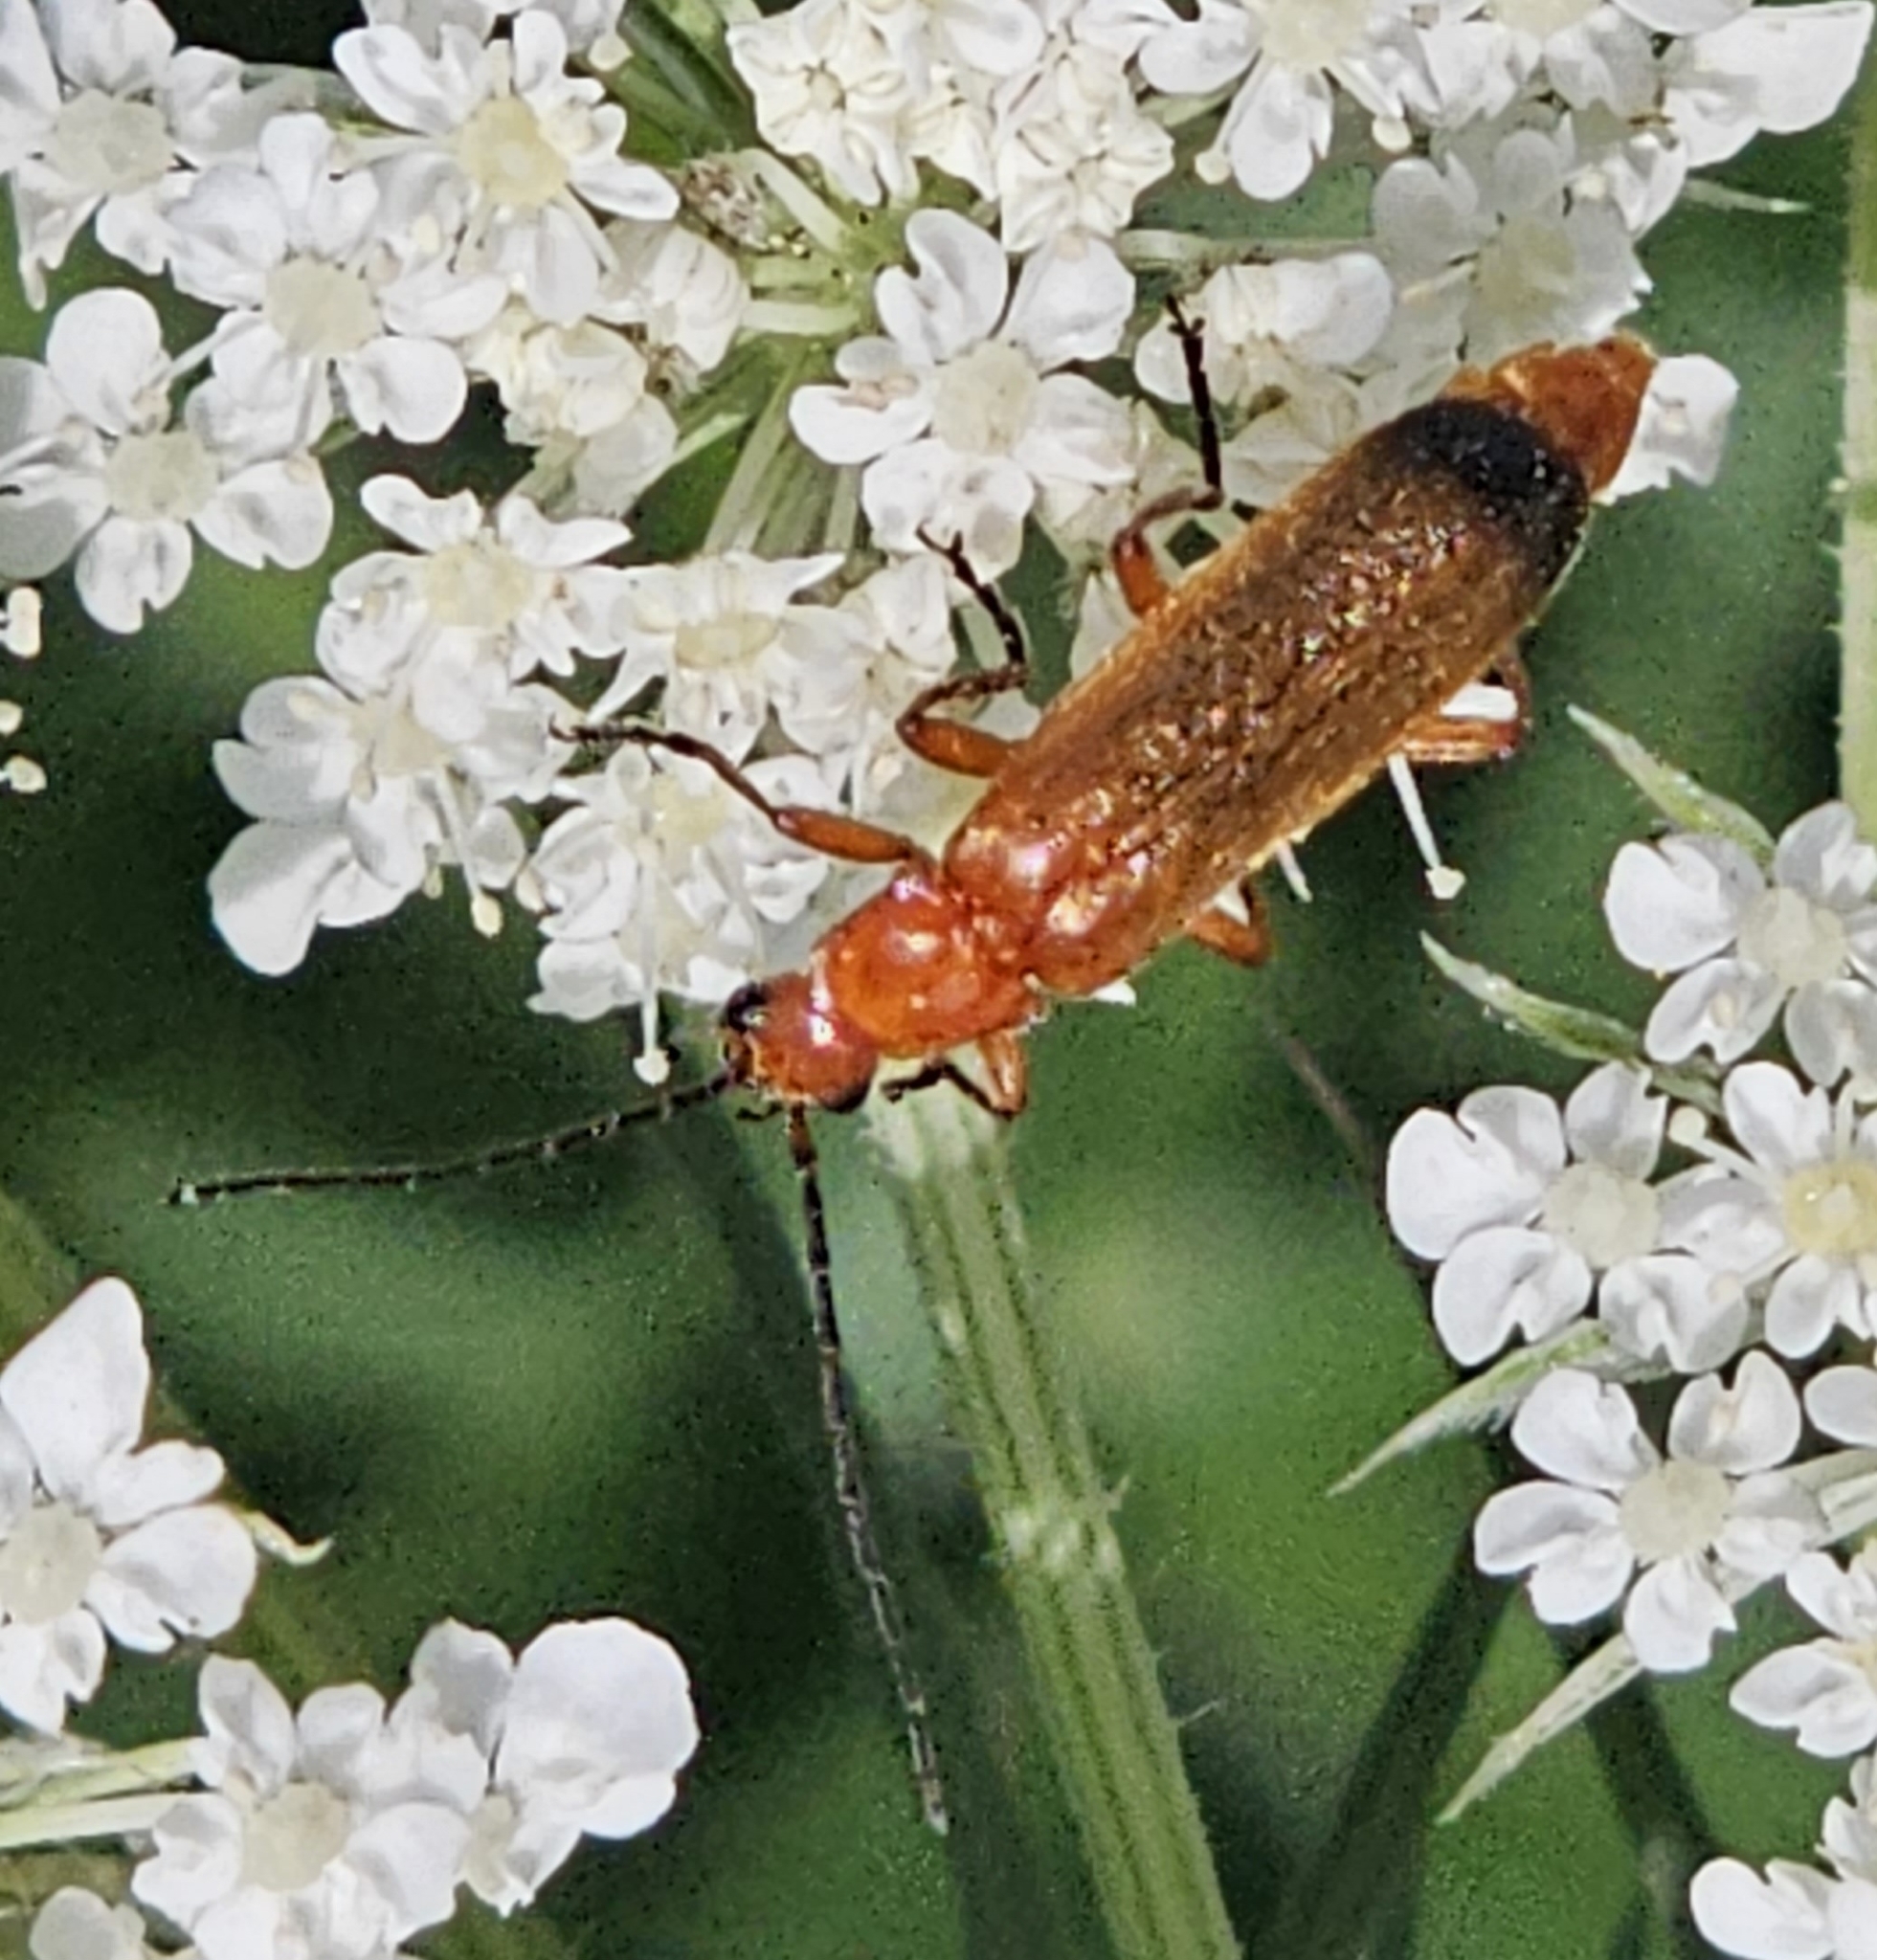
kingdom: Animalia
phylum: Arthropoda
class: Insecta
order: Coleoptera
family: Cantharidae
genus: Rhagonycha
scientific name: Rhagonycha fulva
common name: Common red soldier beetle
